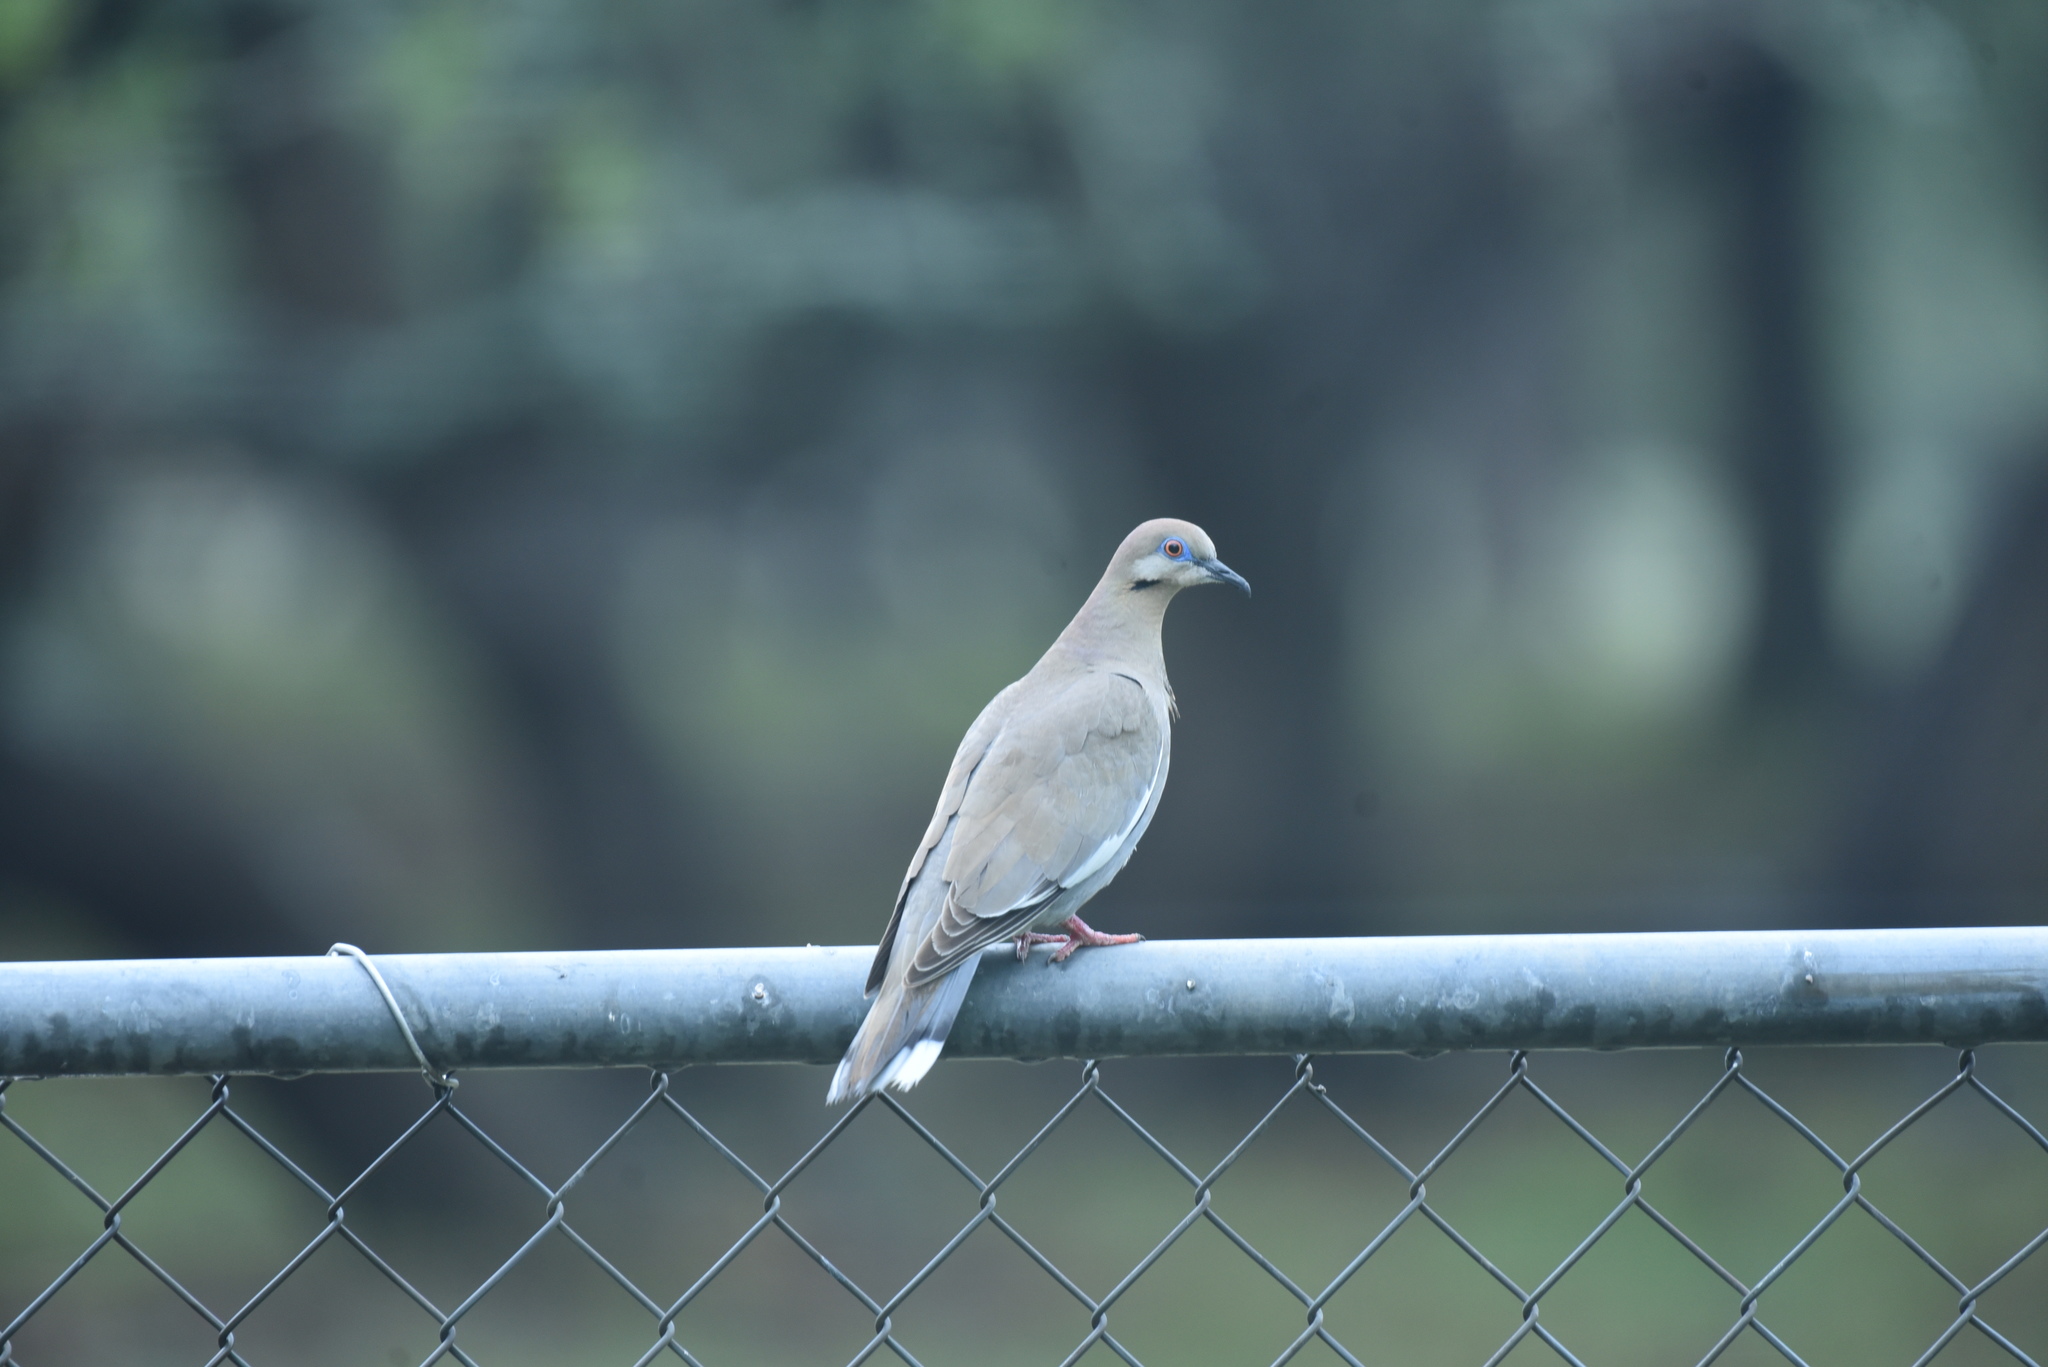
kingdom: Animalia
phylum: Chordata
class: Aves
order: Columbiformes
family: Columbidae
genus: Zenaida
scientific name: Zenaida asiatica
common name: White-winged dove
